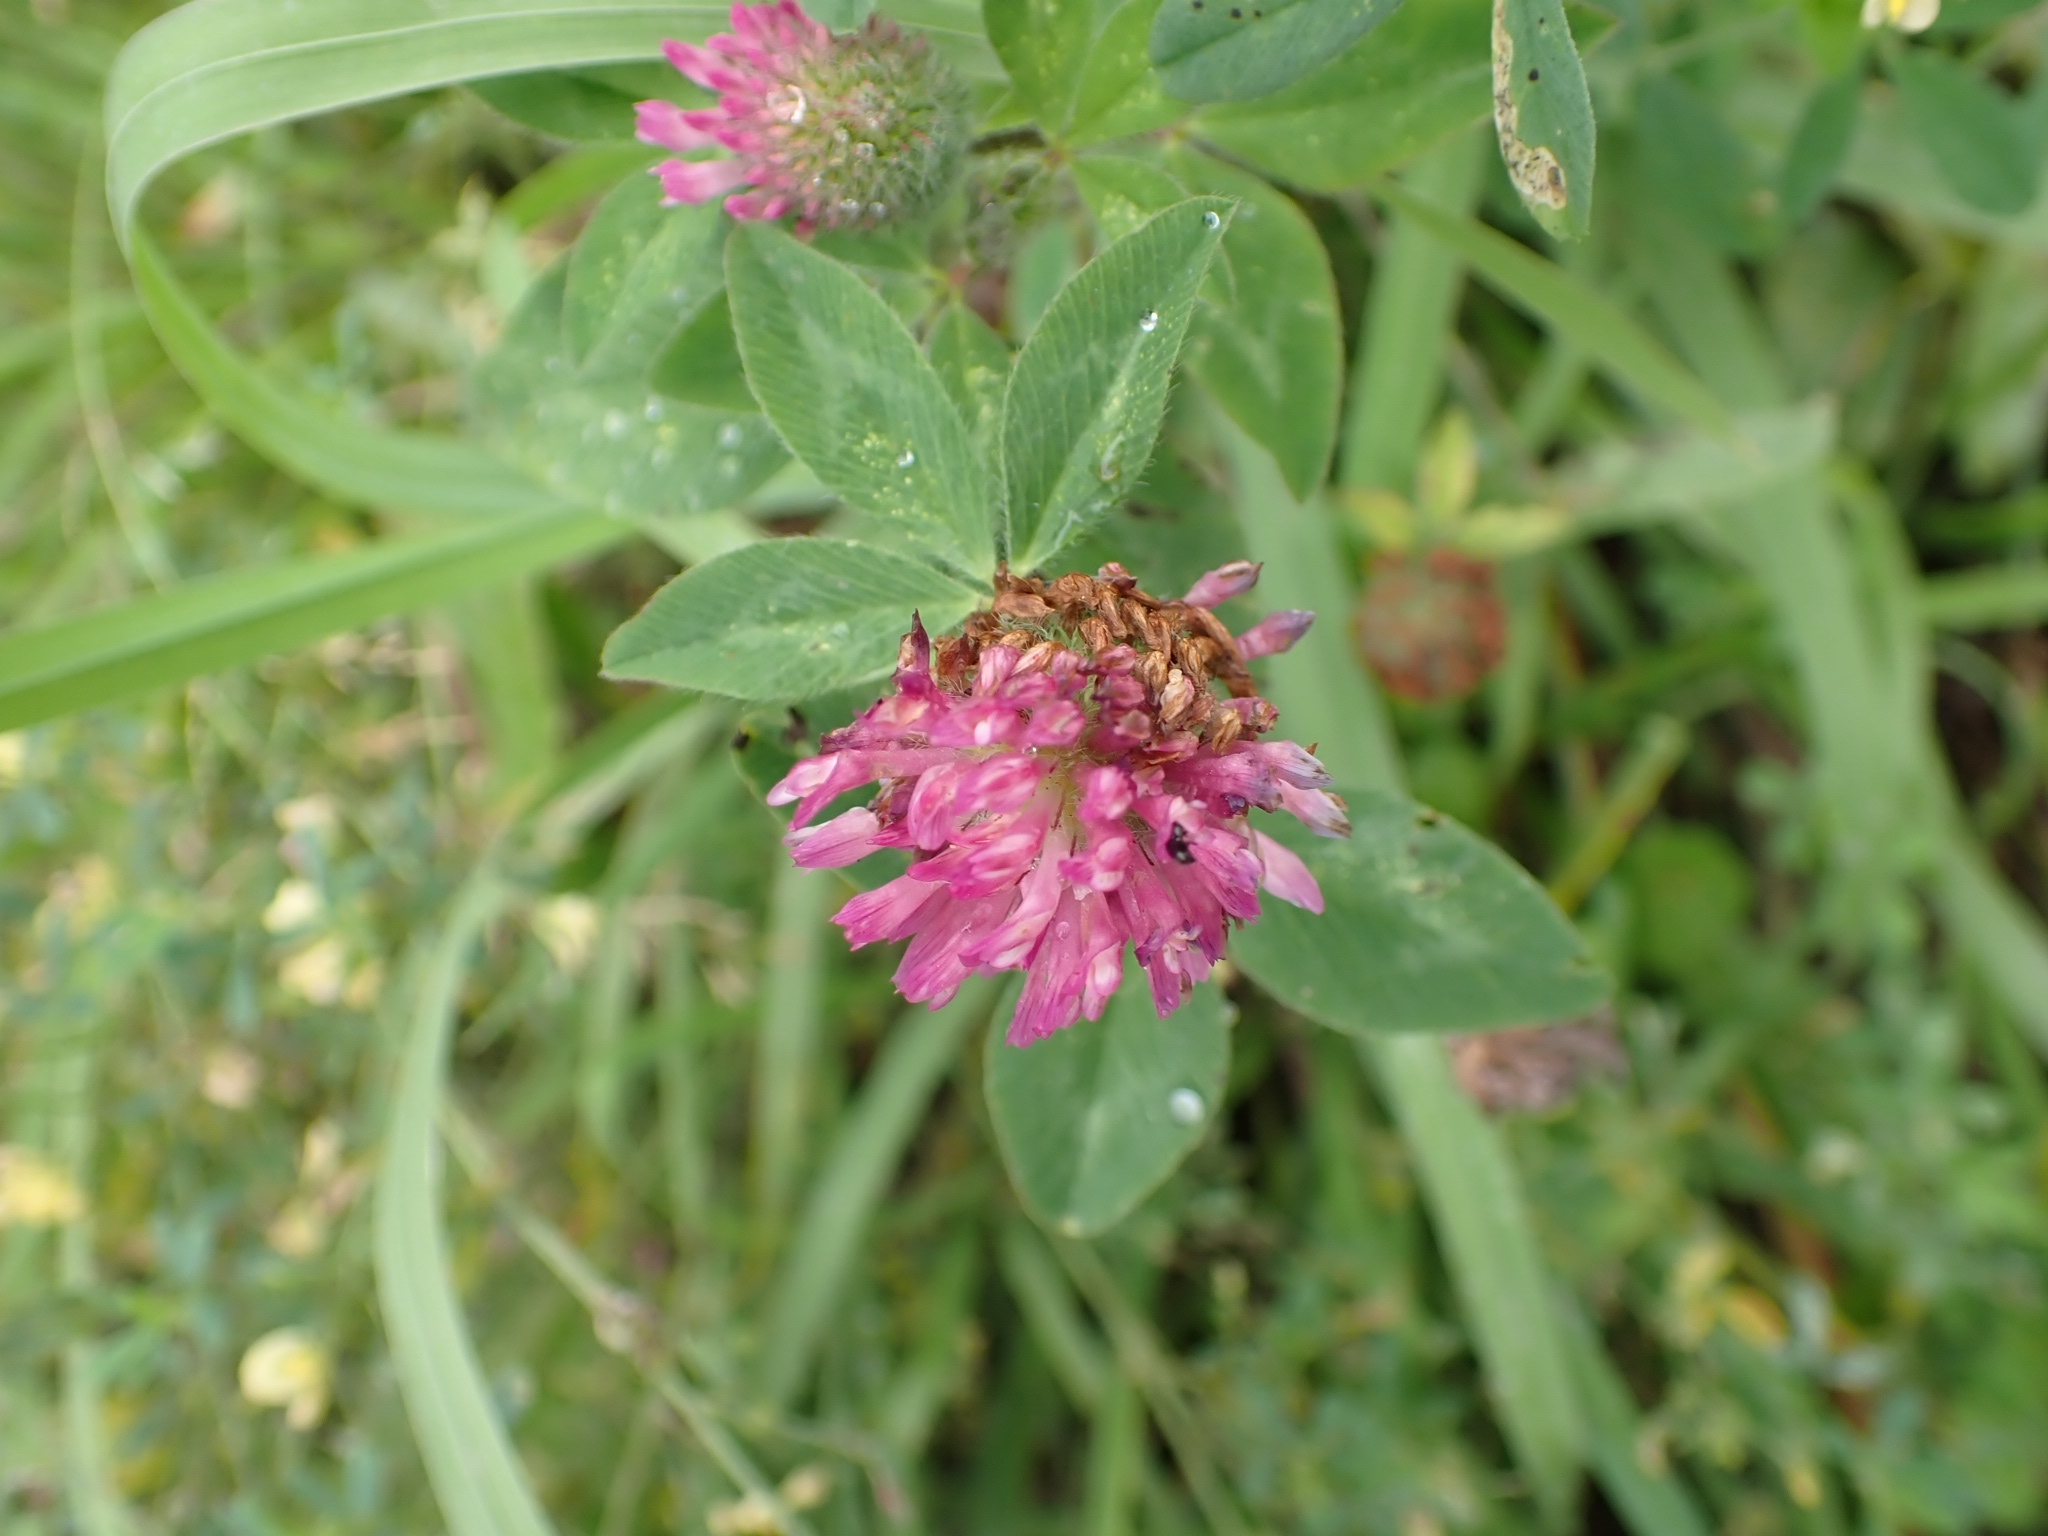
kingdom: Plantae
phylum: Tracheophyta
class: Magnoliopsida
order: Fabales
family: Fabaceae
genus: Trifolium
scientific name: Trifolium pratense
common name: Red clover
